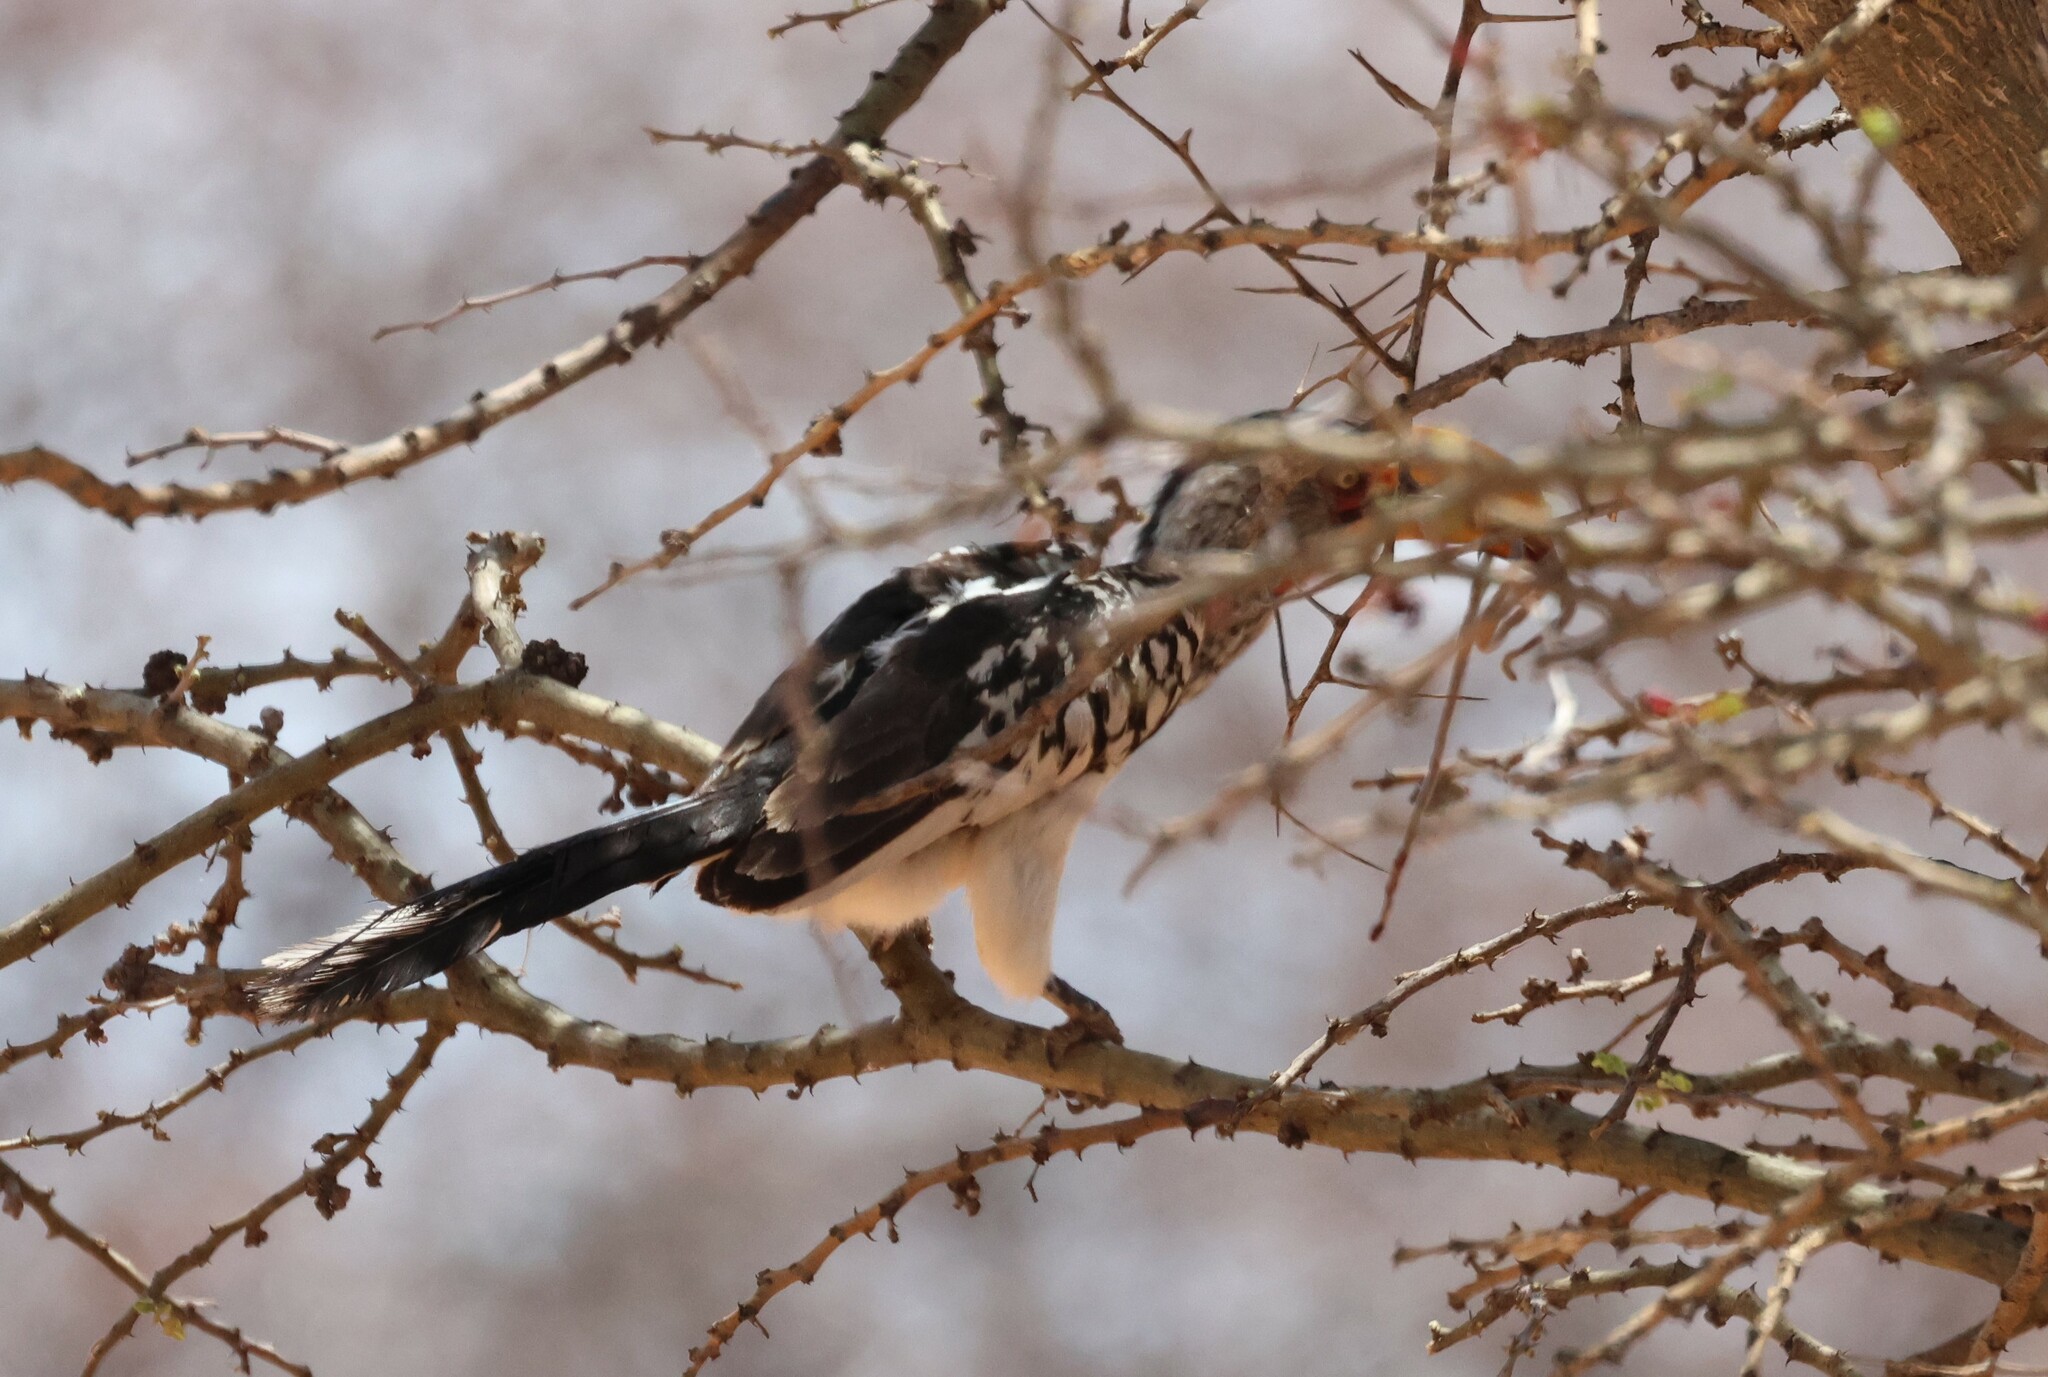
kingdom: Animalia
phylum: Chordata
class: Aves
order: Bucerotiformes
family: Bucerotidae
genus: Tockus
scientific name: Tockus leucomelas
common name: Southern yellow-billed hornbill
